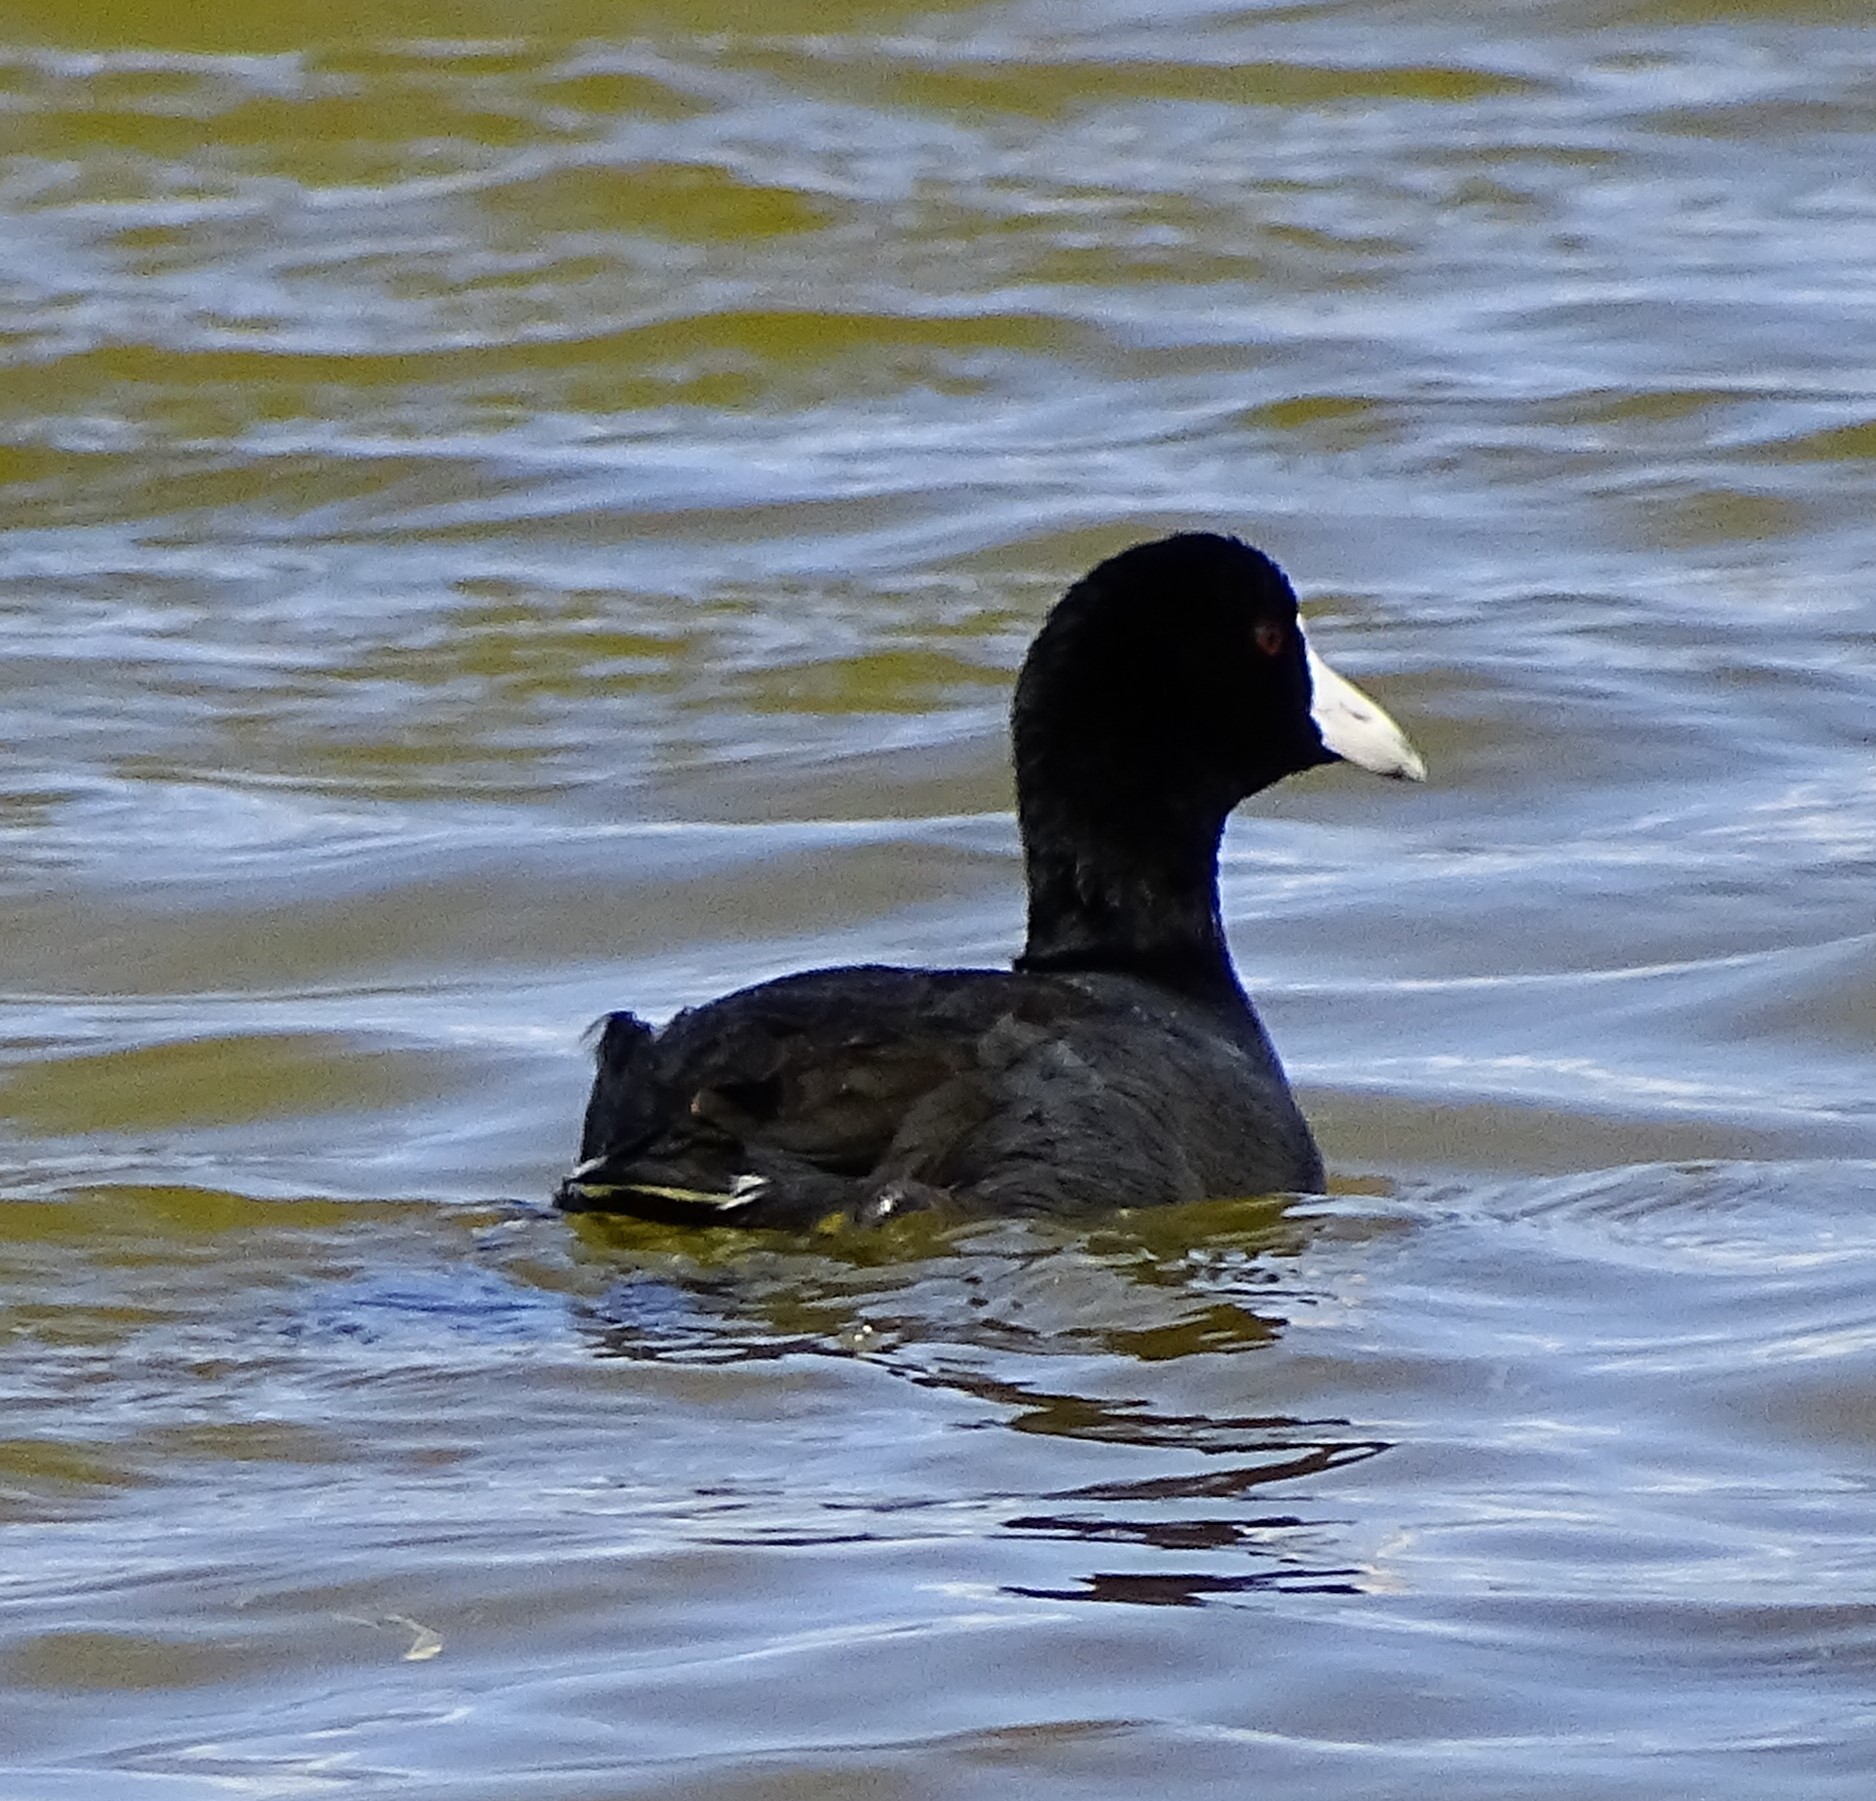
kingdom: Animalia
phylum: Chordata
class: Aves
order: Gruiformes
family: Rallidae
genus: Fulica
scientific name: Fulica alai
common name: Hawaiian coot
